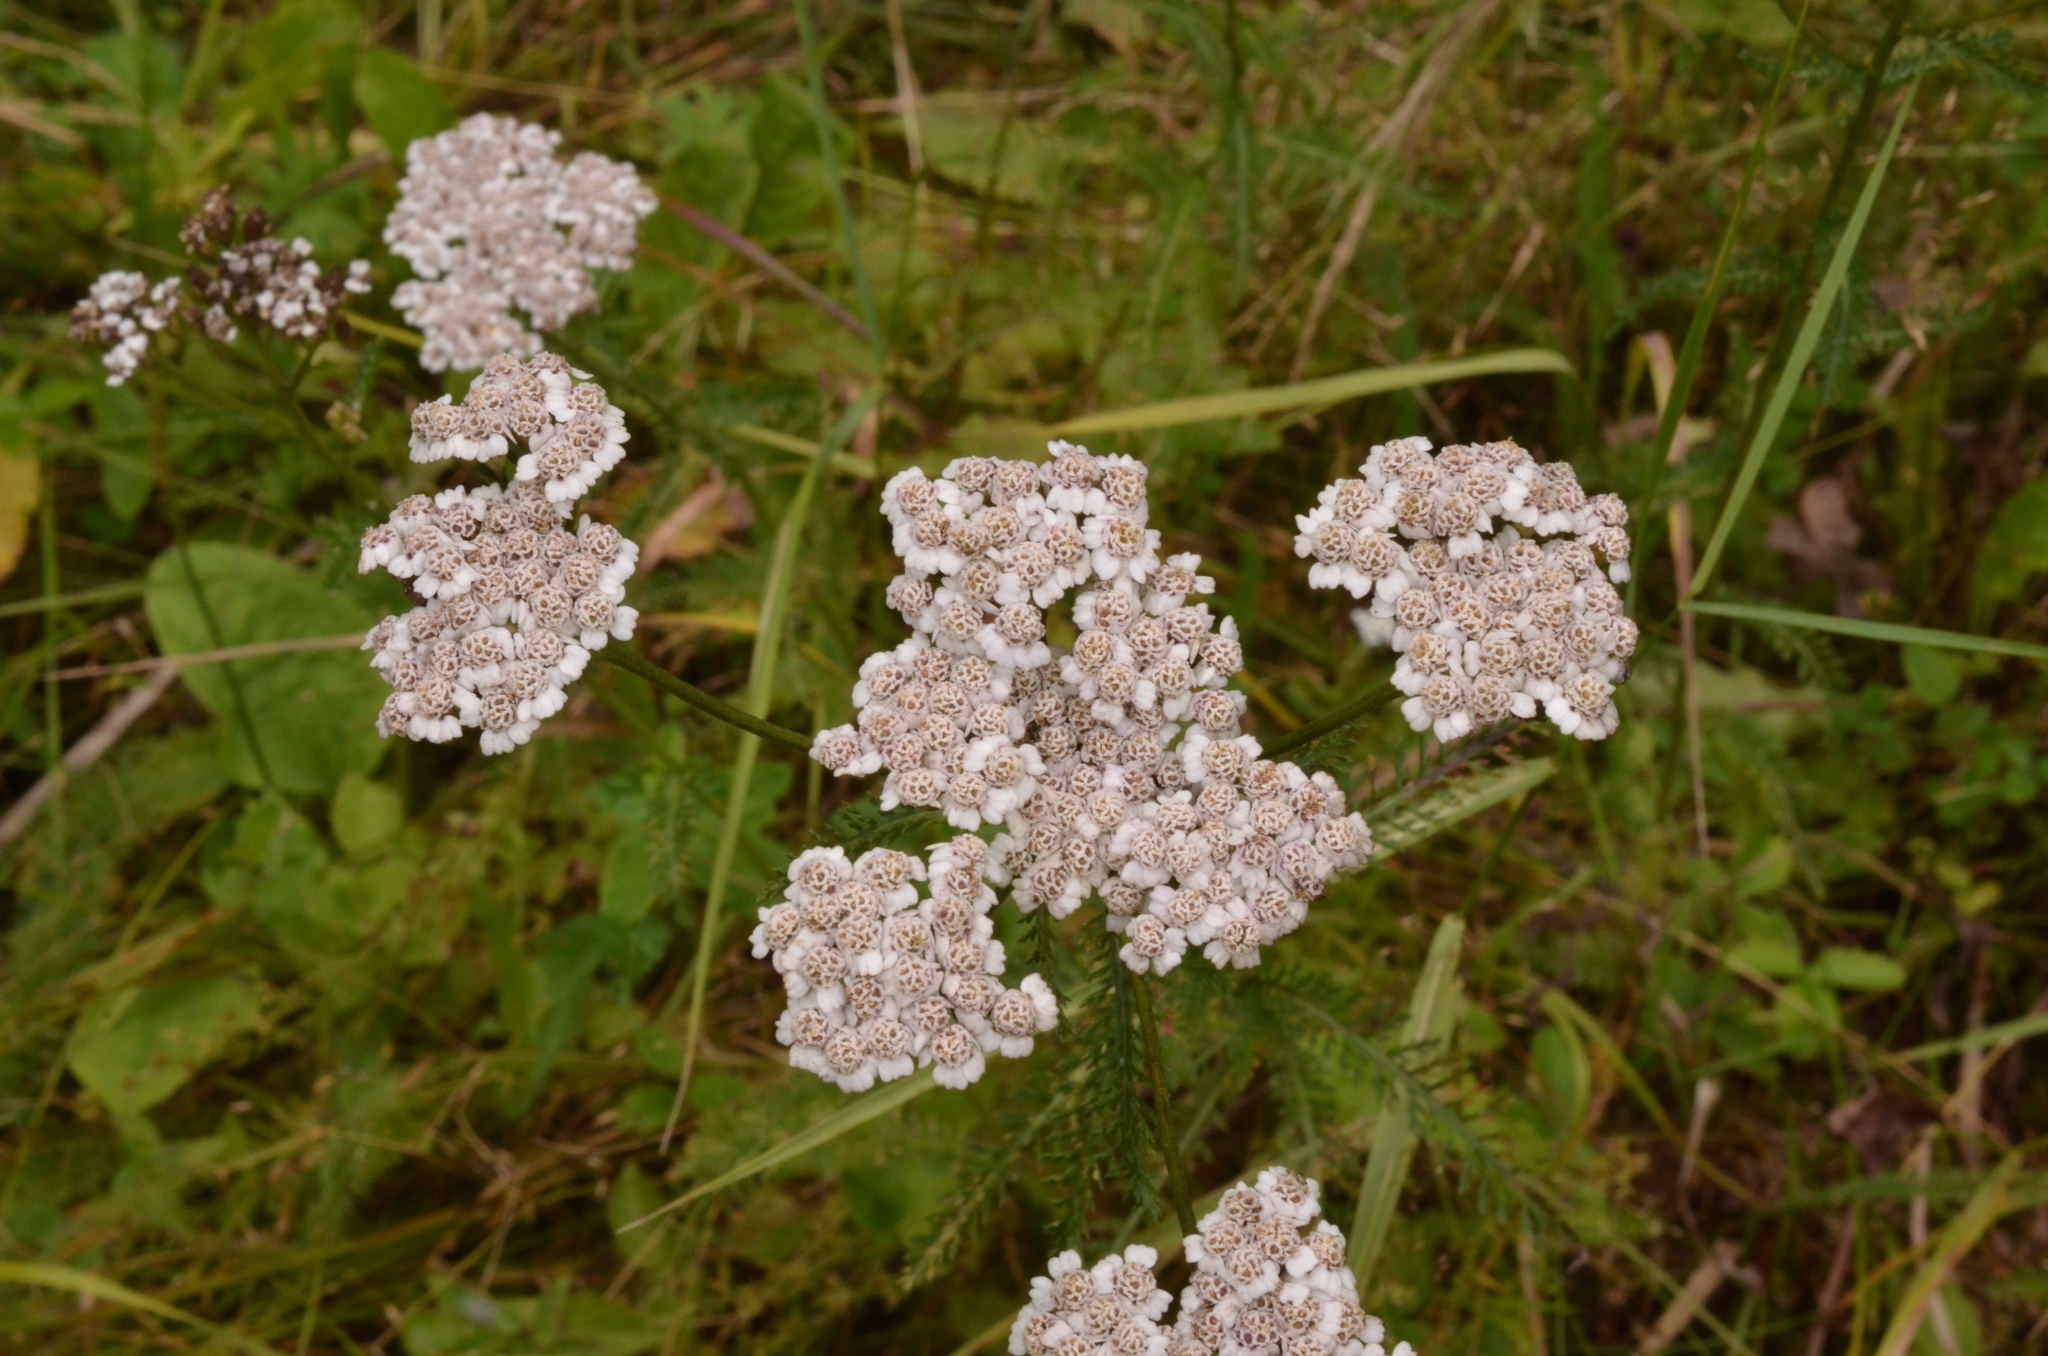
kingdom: Plantae
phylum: Tracheophyta
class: Magnoliopsida
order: Asterales
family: Asteraceae
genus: Achillea
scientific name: Achillea millefolium
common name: Yarrow
